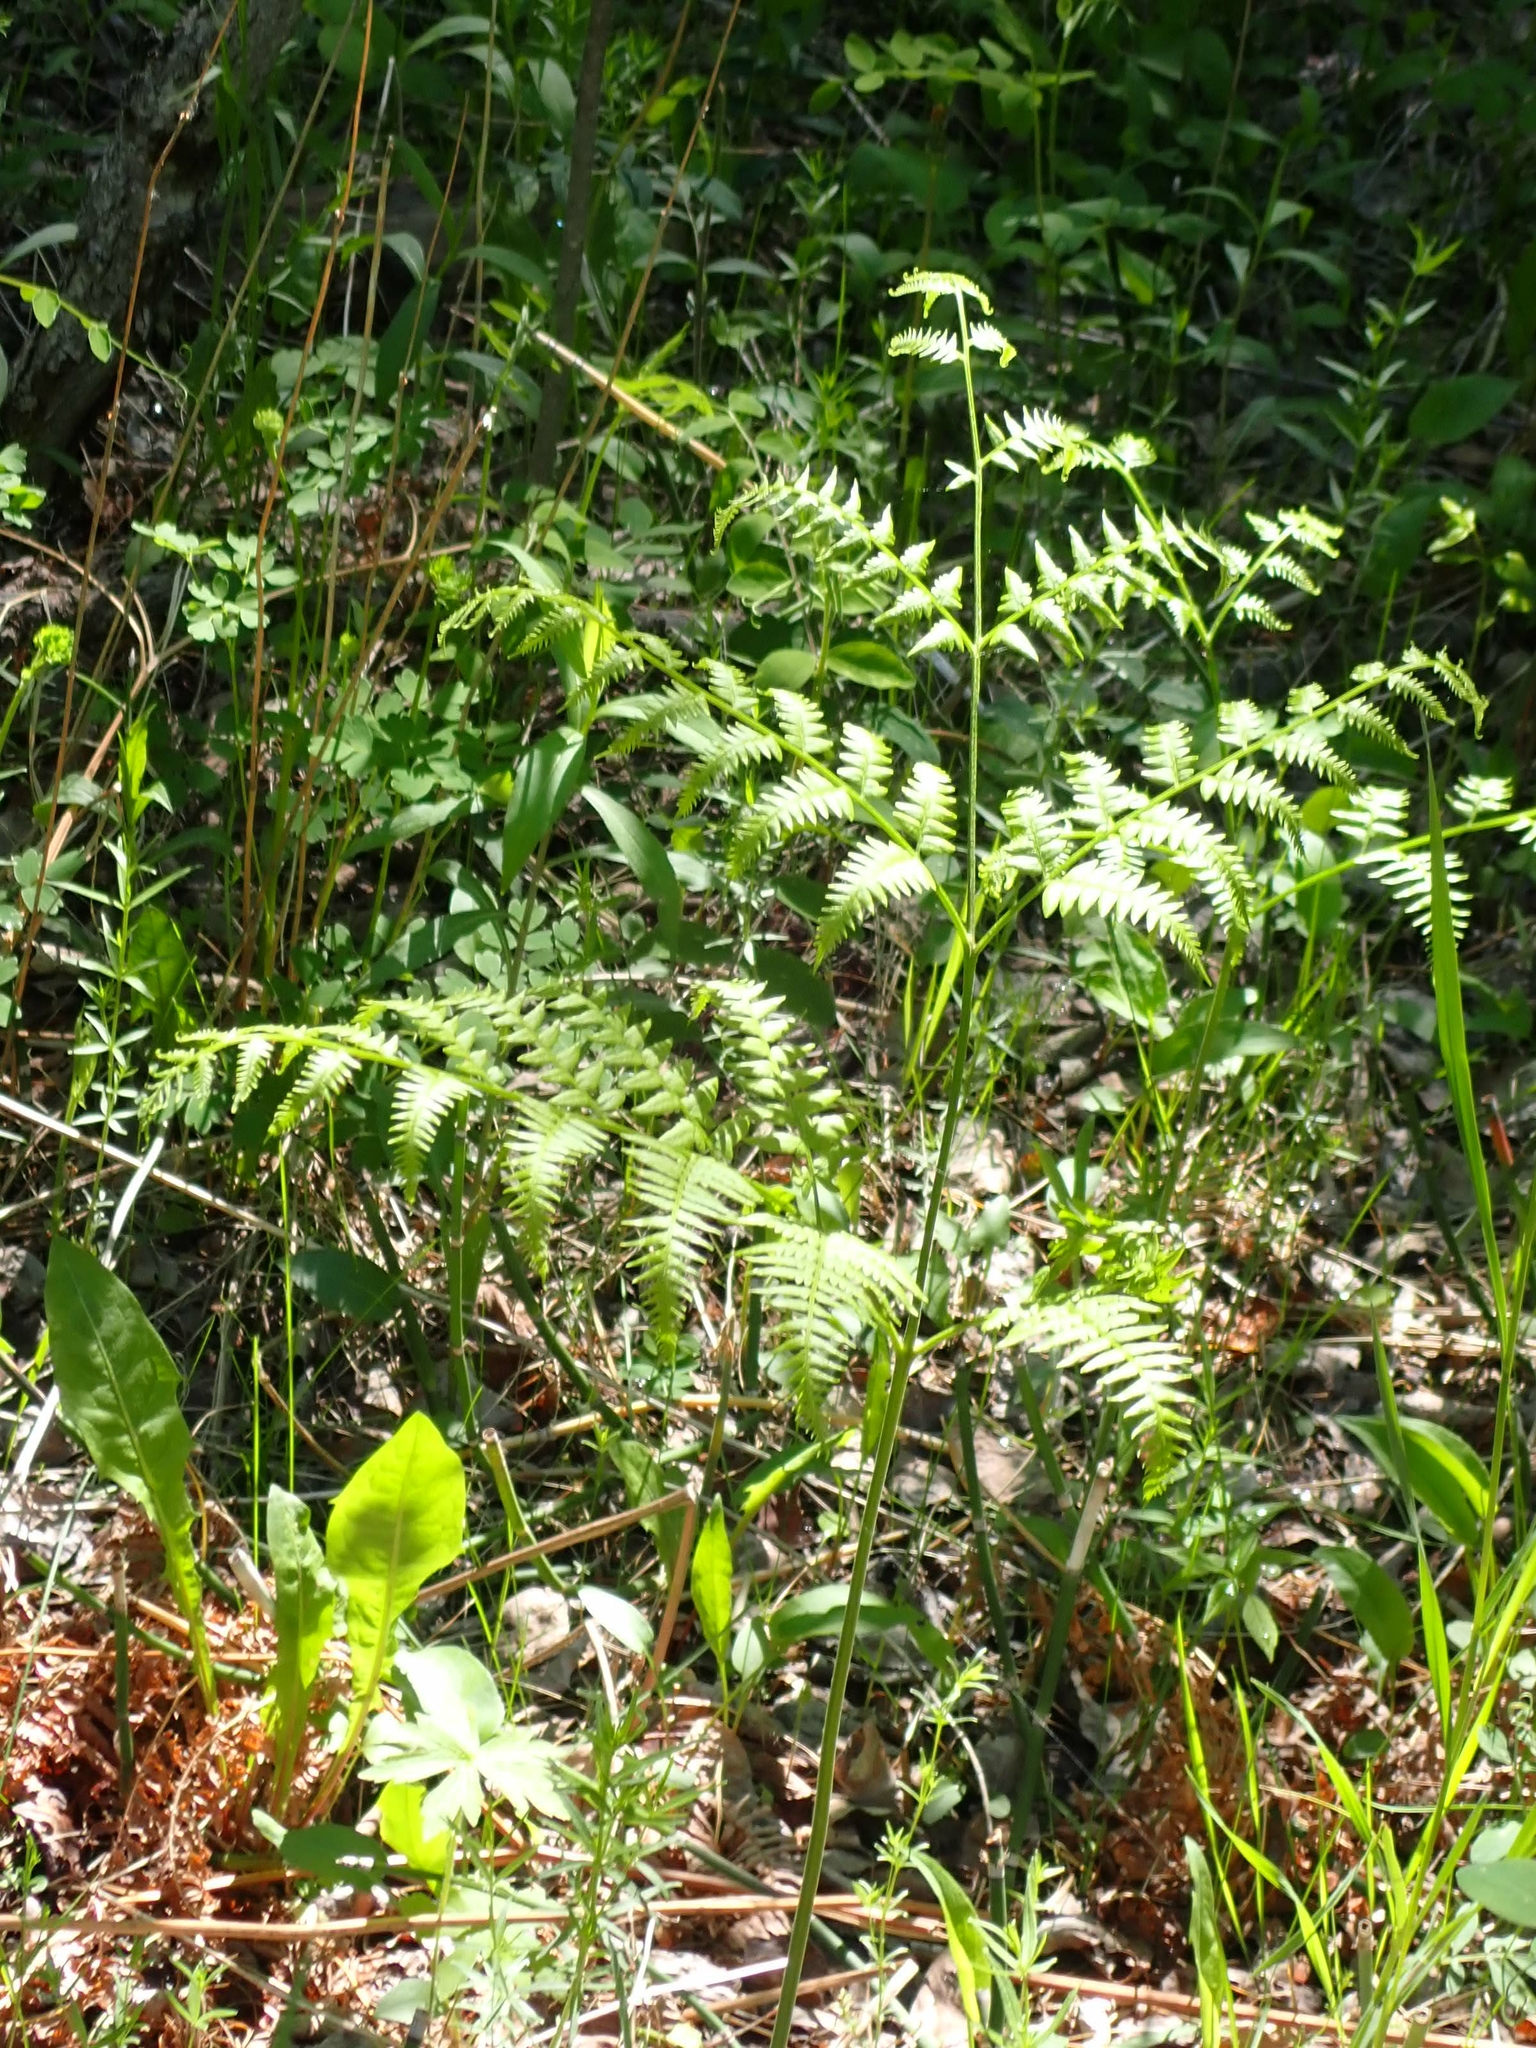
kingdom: Plantae
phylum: Tracheophyta
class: Polypodiopsida
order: Polypodiales
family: Dennstaedtiaceae
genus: Pteridium
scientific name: Pteridium aquilinum
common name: Bracken
